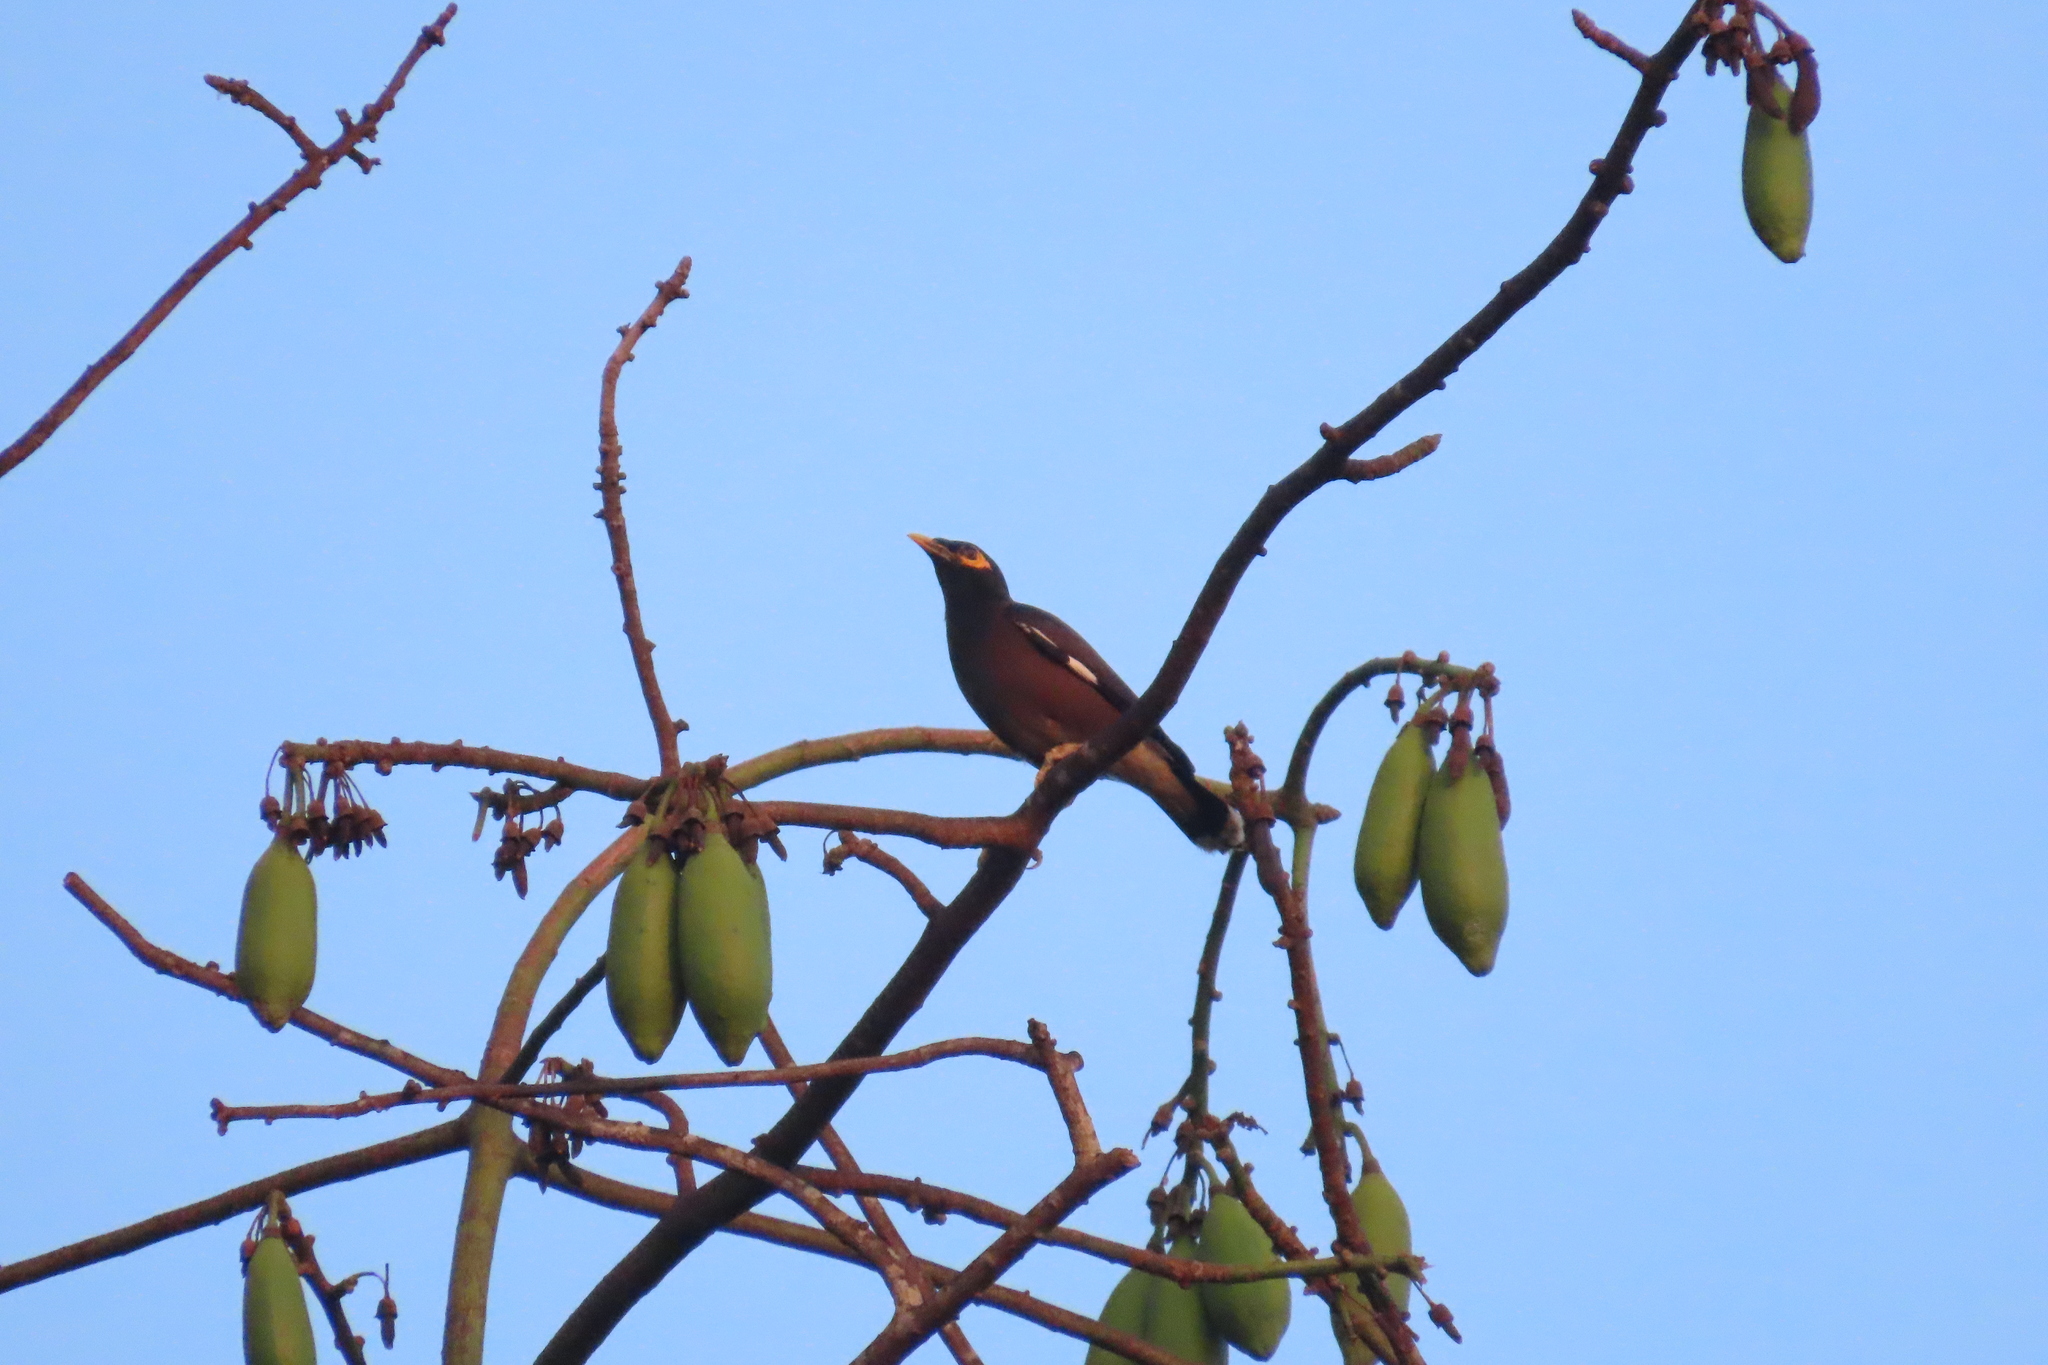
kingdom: Animalia
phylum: Chordata
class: Aves
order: Passeriformes
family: Sturnidae
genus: Acridotheres
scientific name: Acridotheres tristis
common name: Common myna
